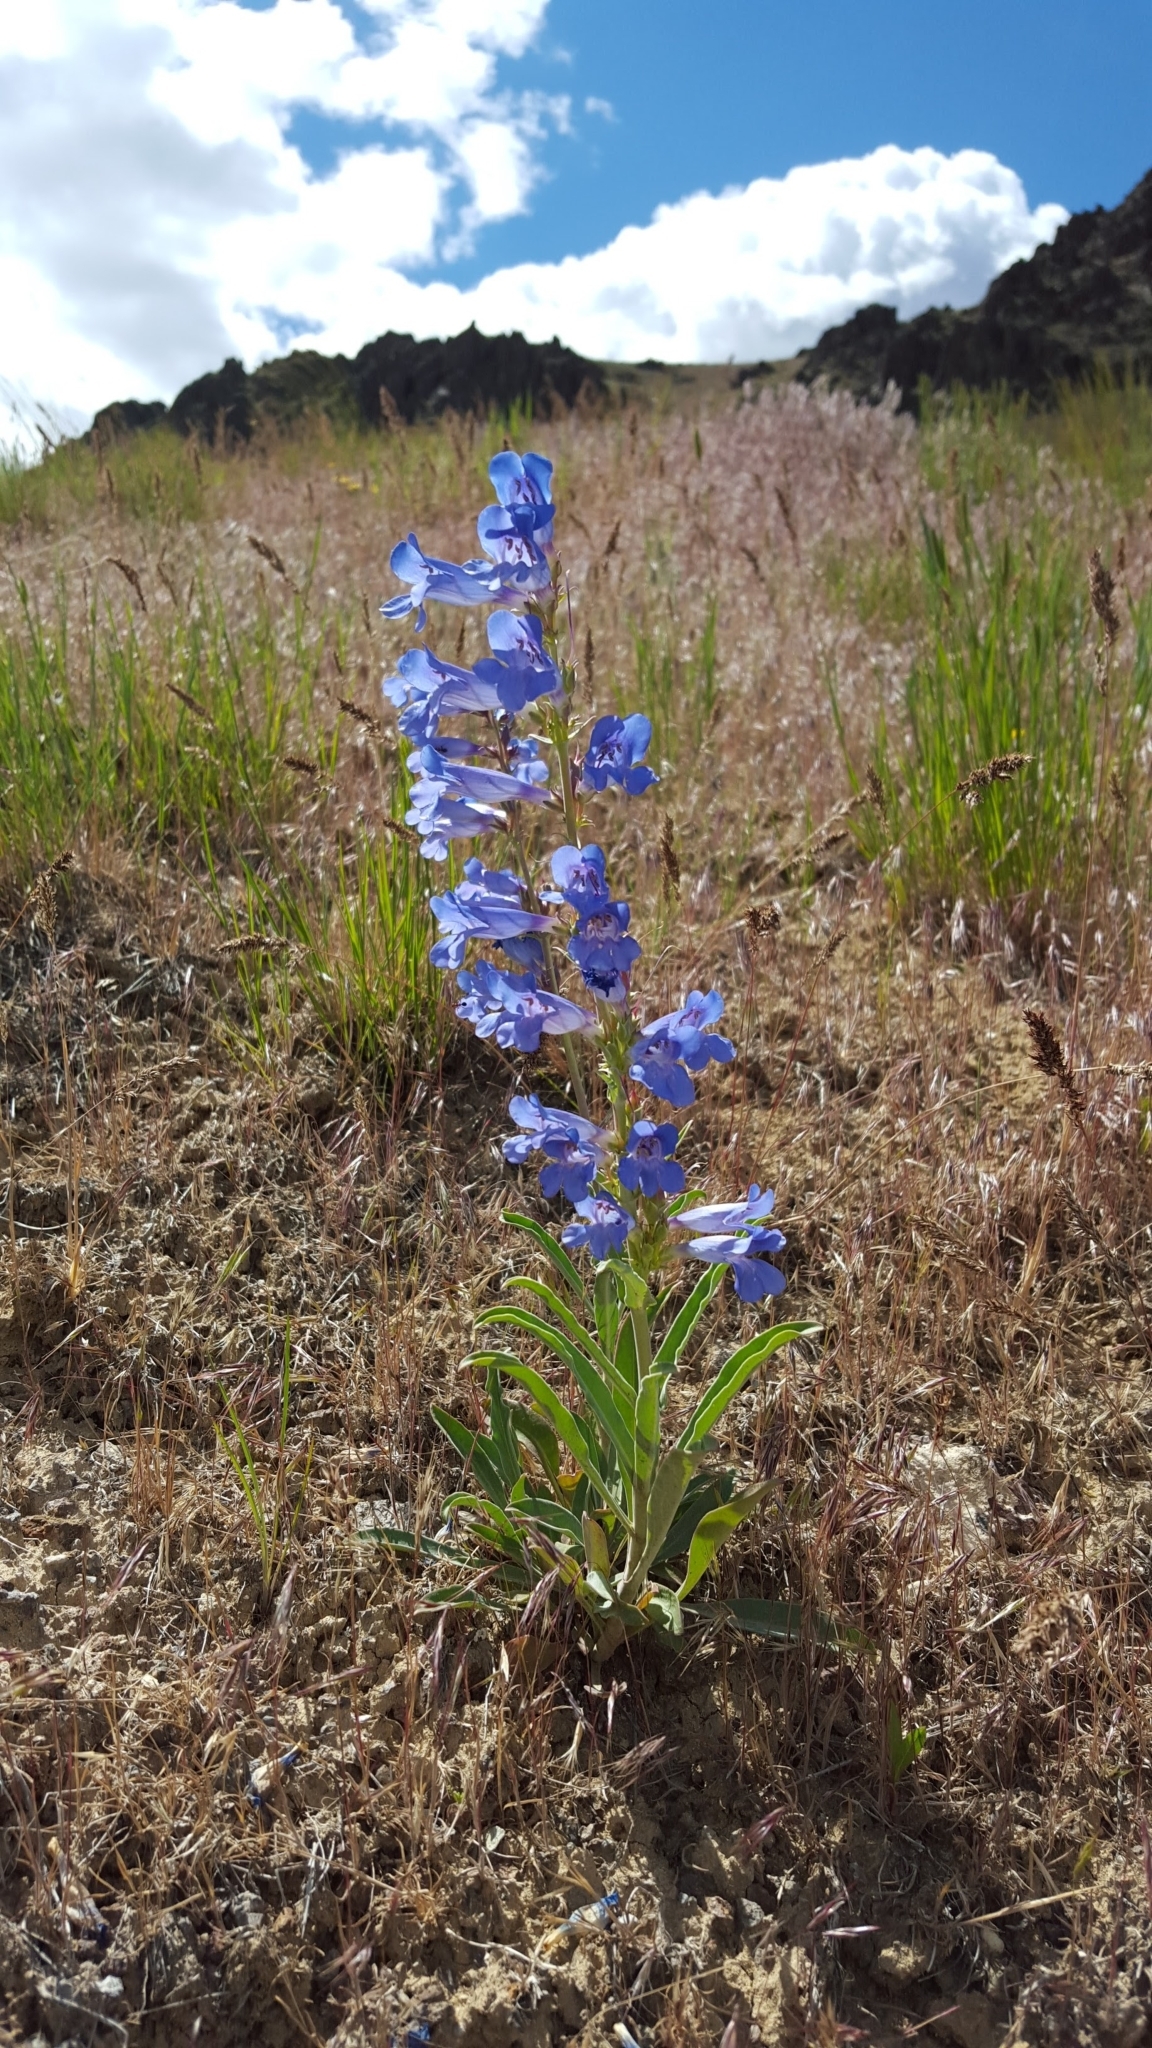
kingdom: Plantae
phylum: Tracheophyta
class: Magnoliopsida
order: Lamiales
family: Plantaginaceae
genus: Penstemon
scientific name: Penstemon speciosus
